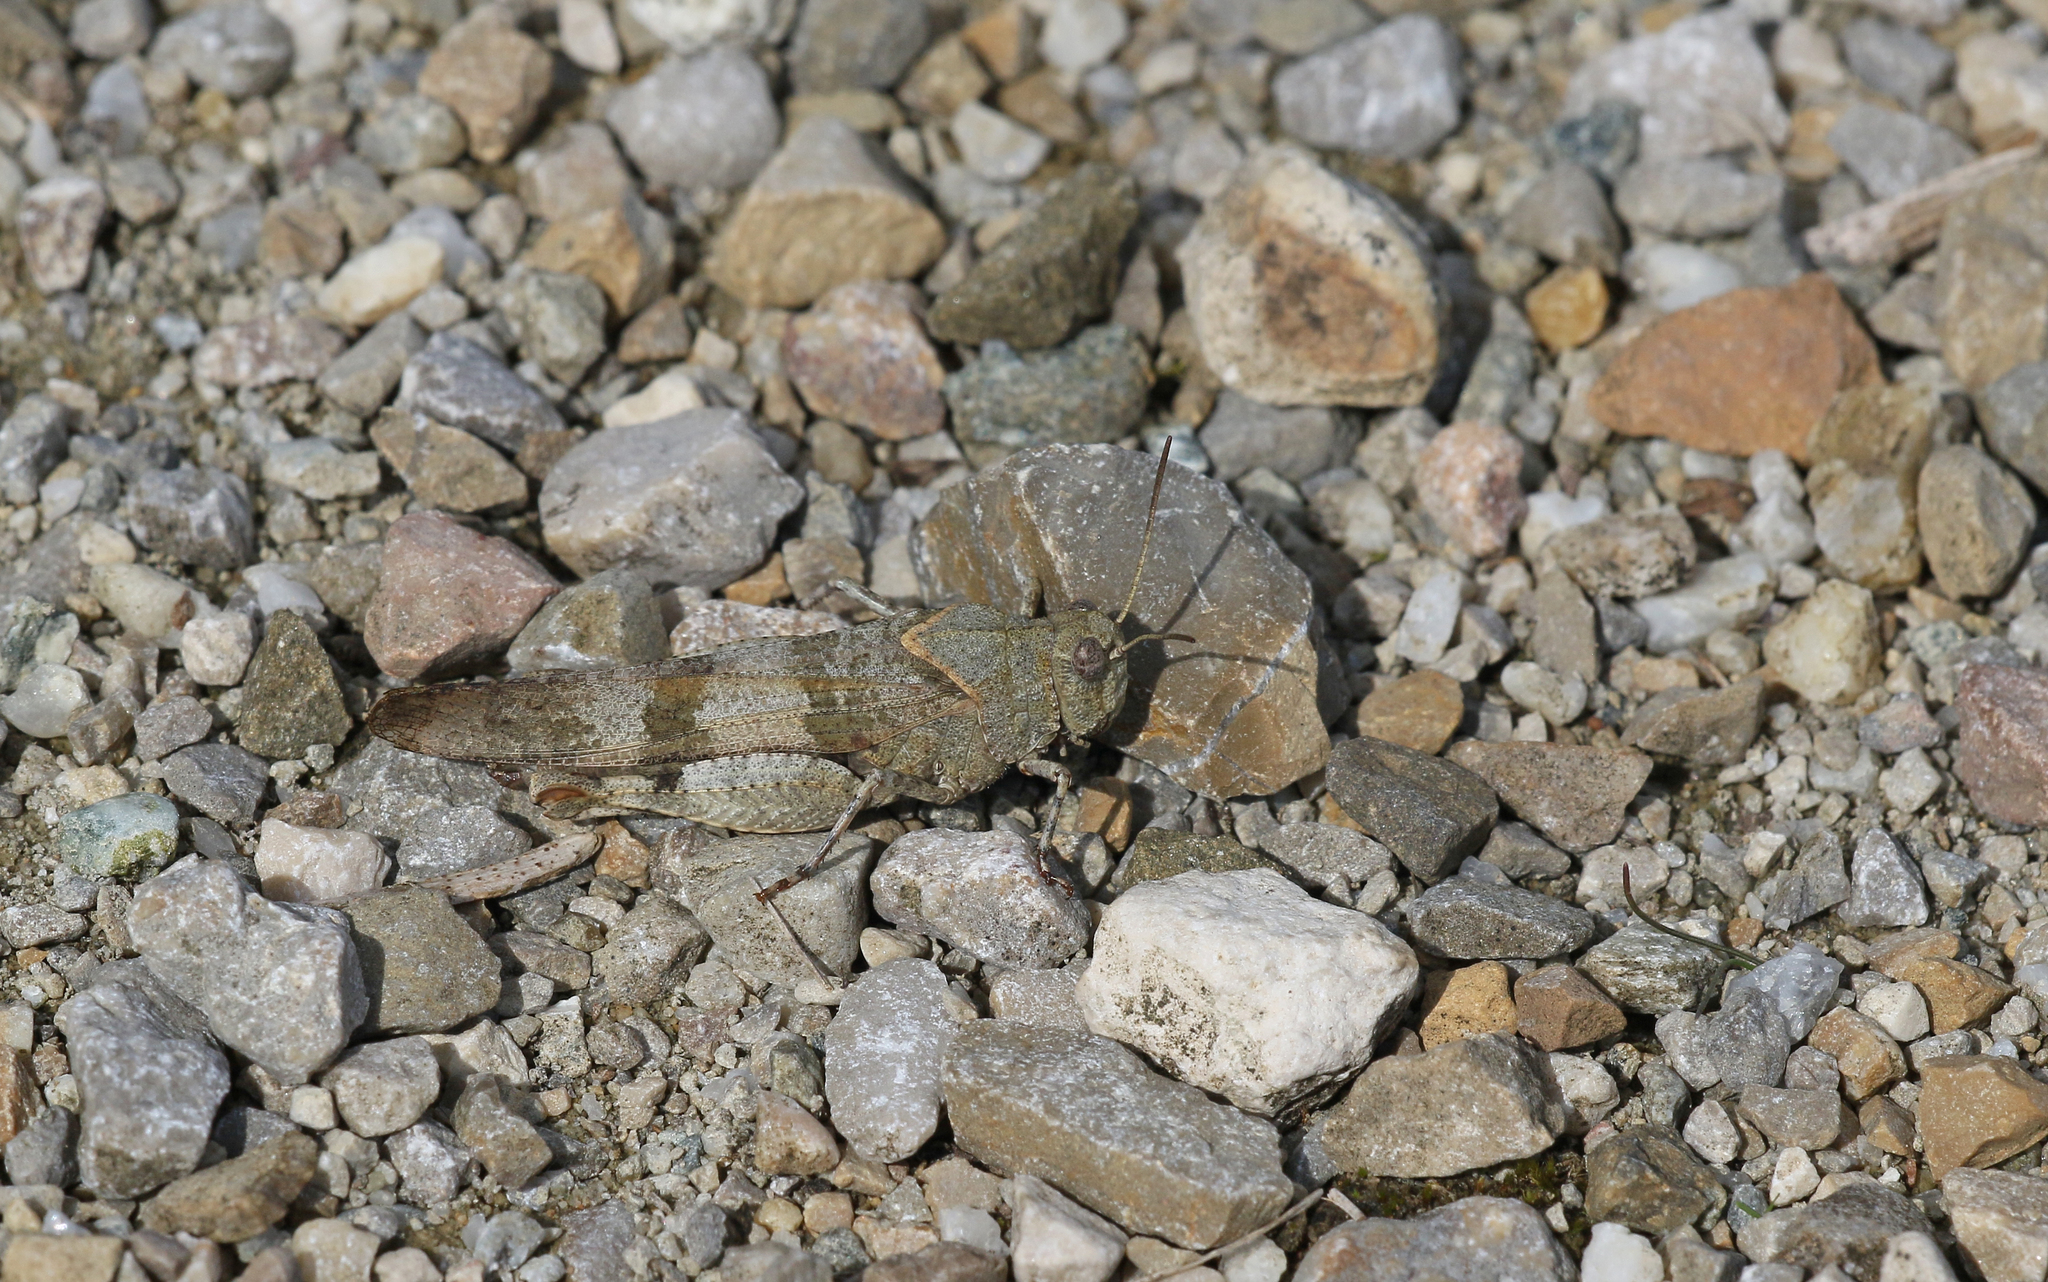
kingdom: Animalia
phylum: Arthropoda
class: Insecta
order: Orthoptera
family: Acrididae
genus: Oedipoda
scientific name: Oedipoda caerulescens
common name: Blue-winged grasshopper
